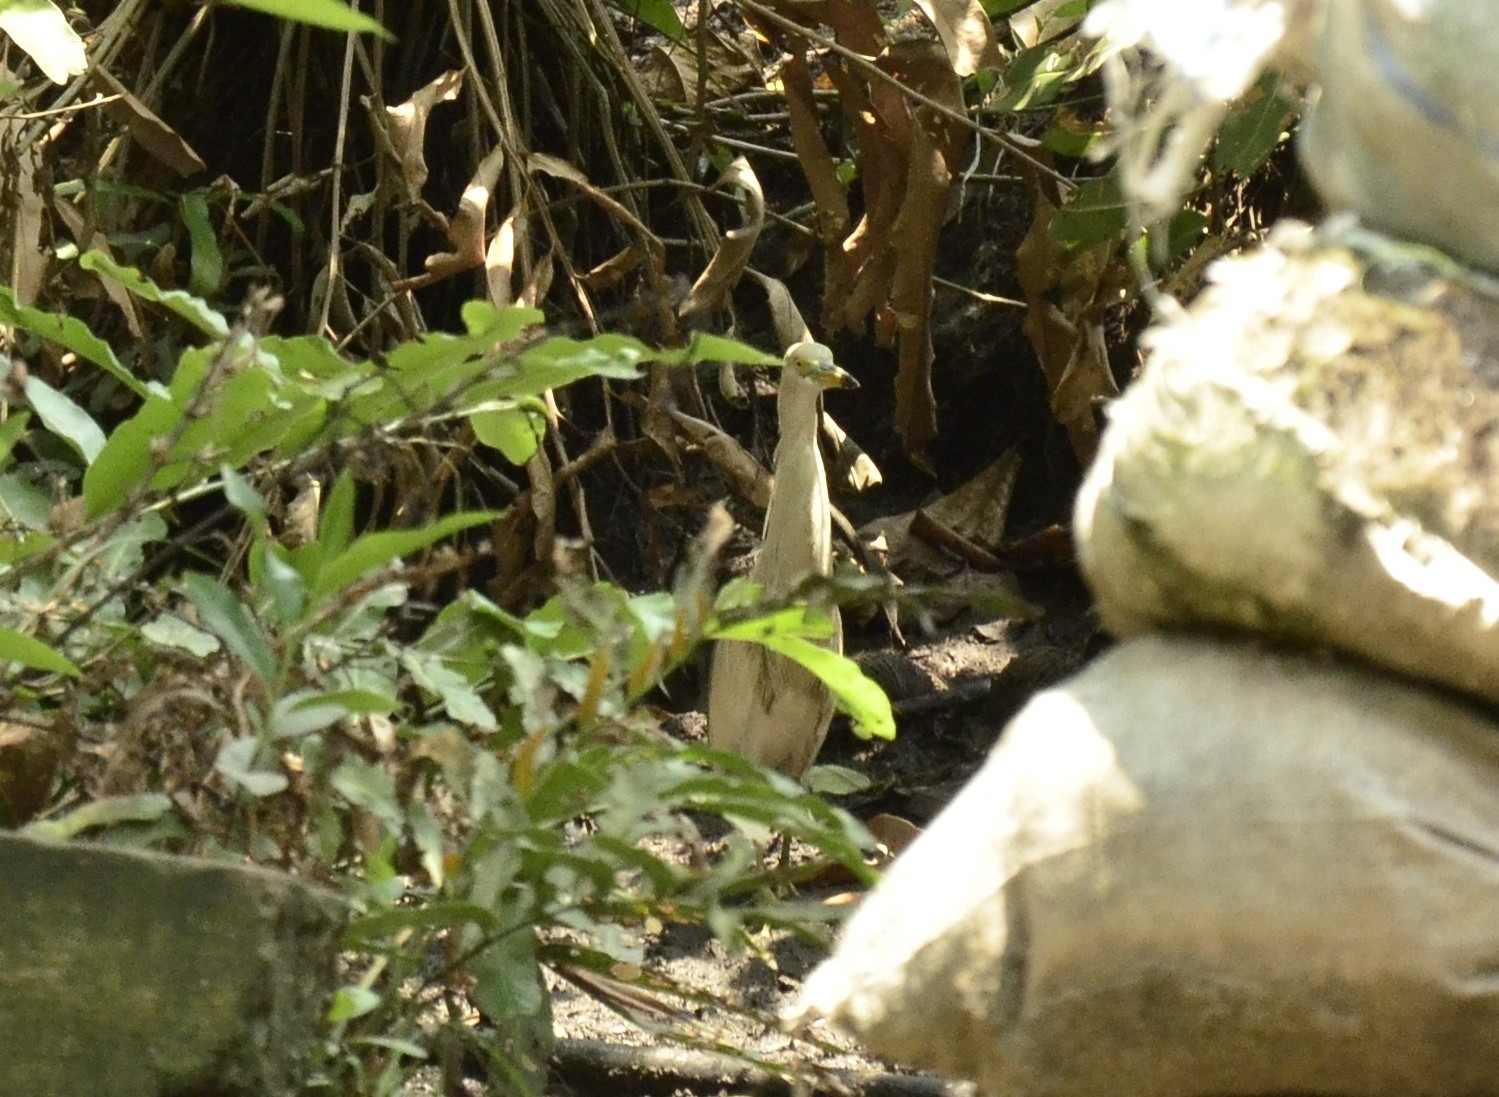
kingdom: Animalia
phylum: Chordata
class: Aves
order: Pelecaniformes
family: Ardeidae
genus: Ardeola
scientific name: Ardeola grayii
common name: Indian pond heron
